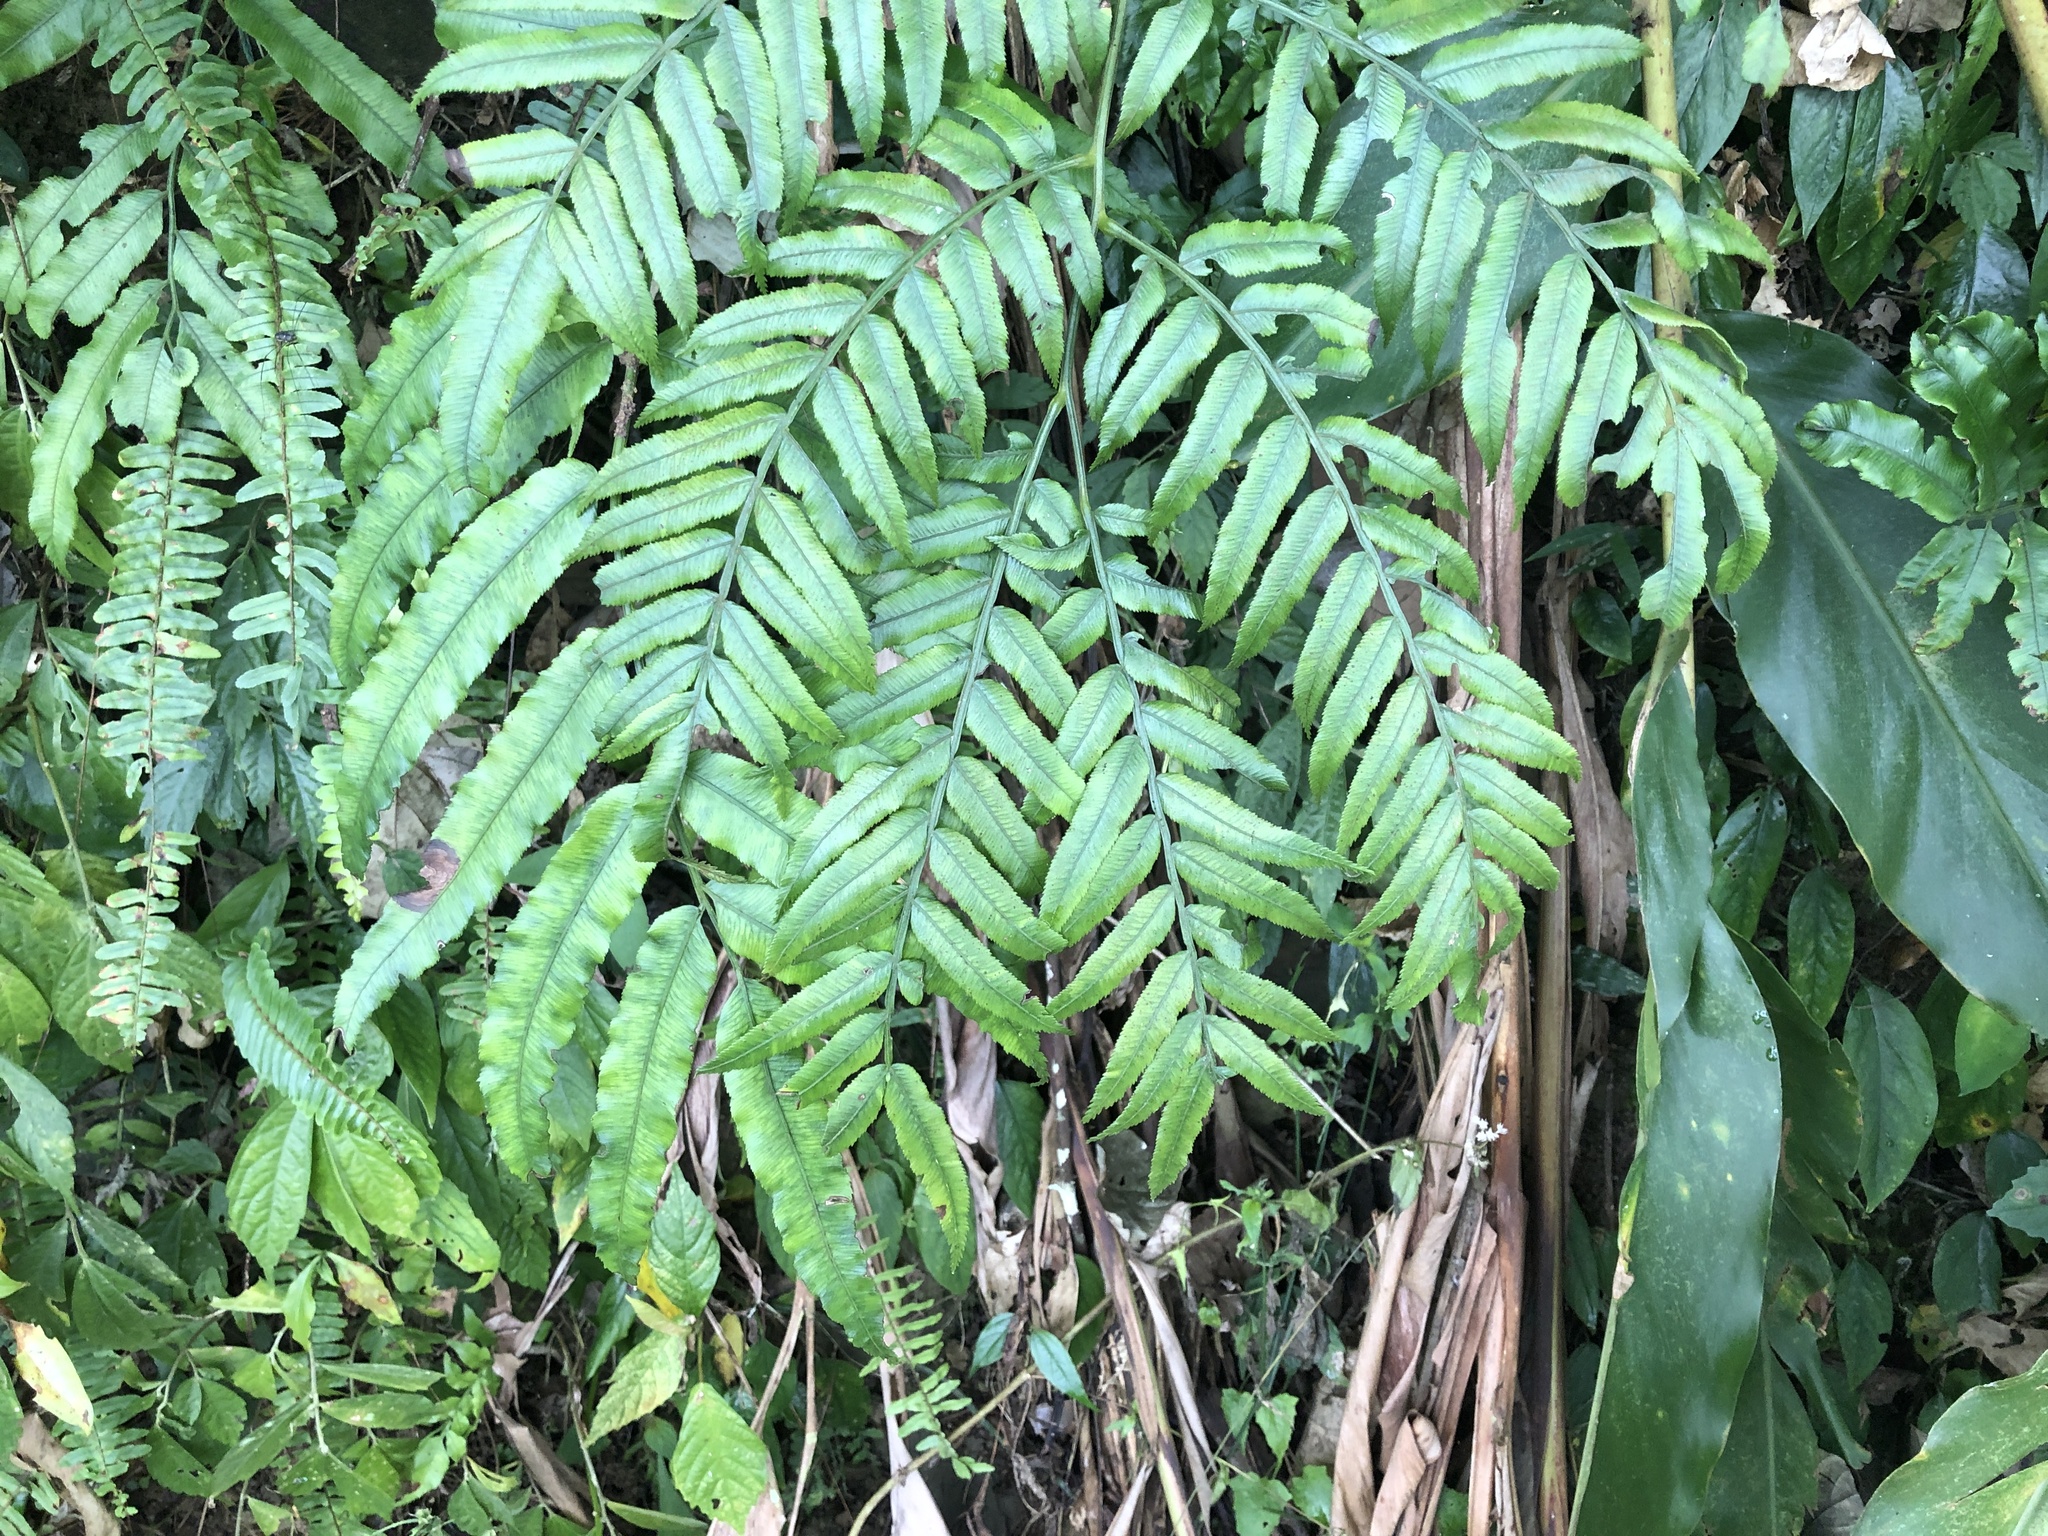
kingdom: Plantae
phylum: Tracheophyta
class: Polypodiopsida
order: Marattiales
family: Marattiaceae
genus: Angiopteris
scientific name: Angiopteris lygodiifolia
